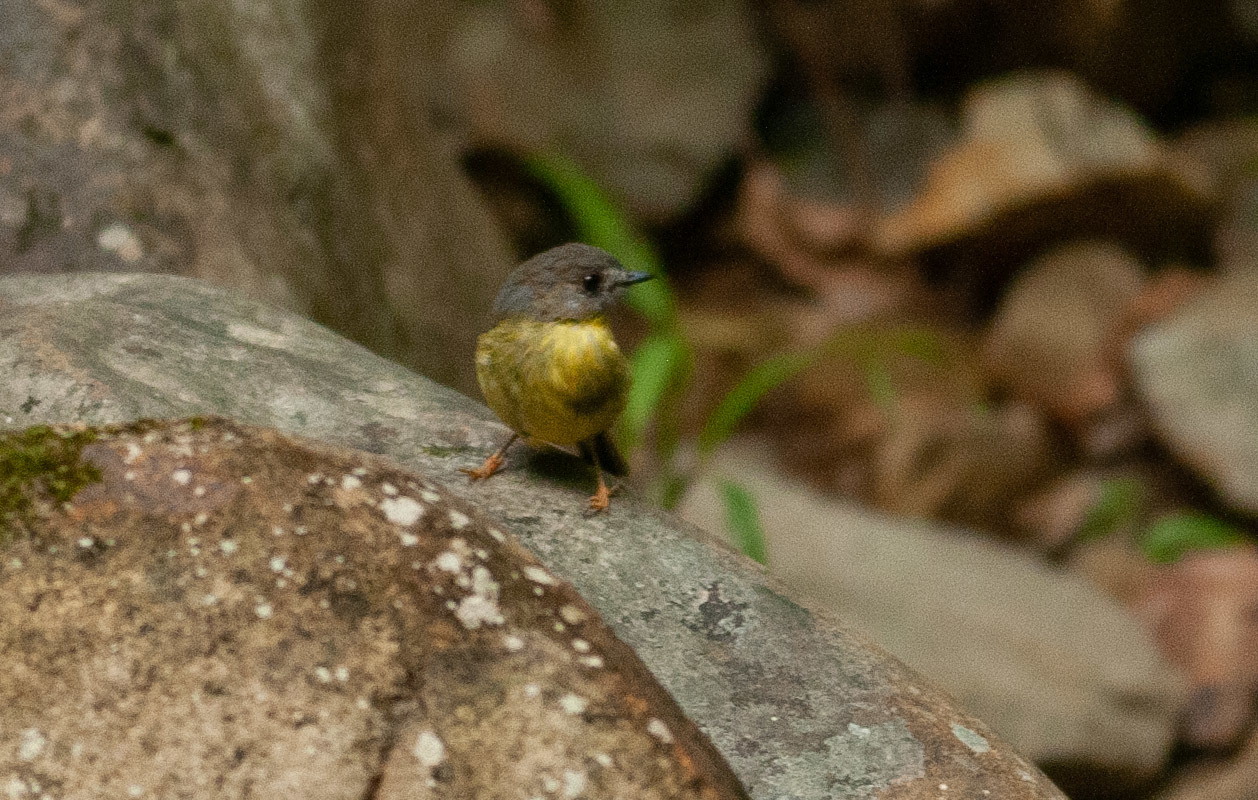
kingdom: Animalia
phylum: Chordata
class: Aves
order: Passeriformes
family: Petroicidae
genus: Eopsaltria
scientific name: Eopsaltria
